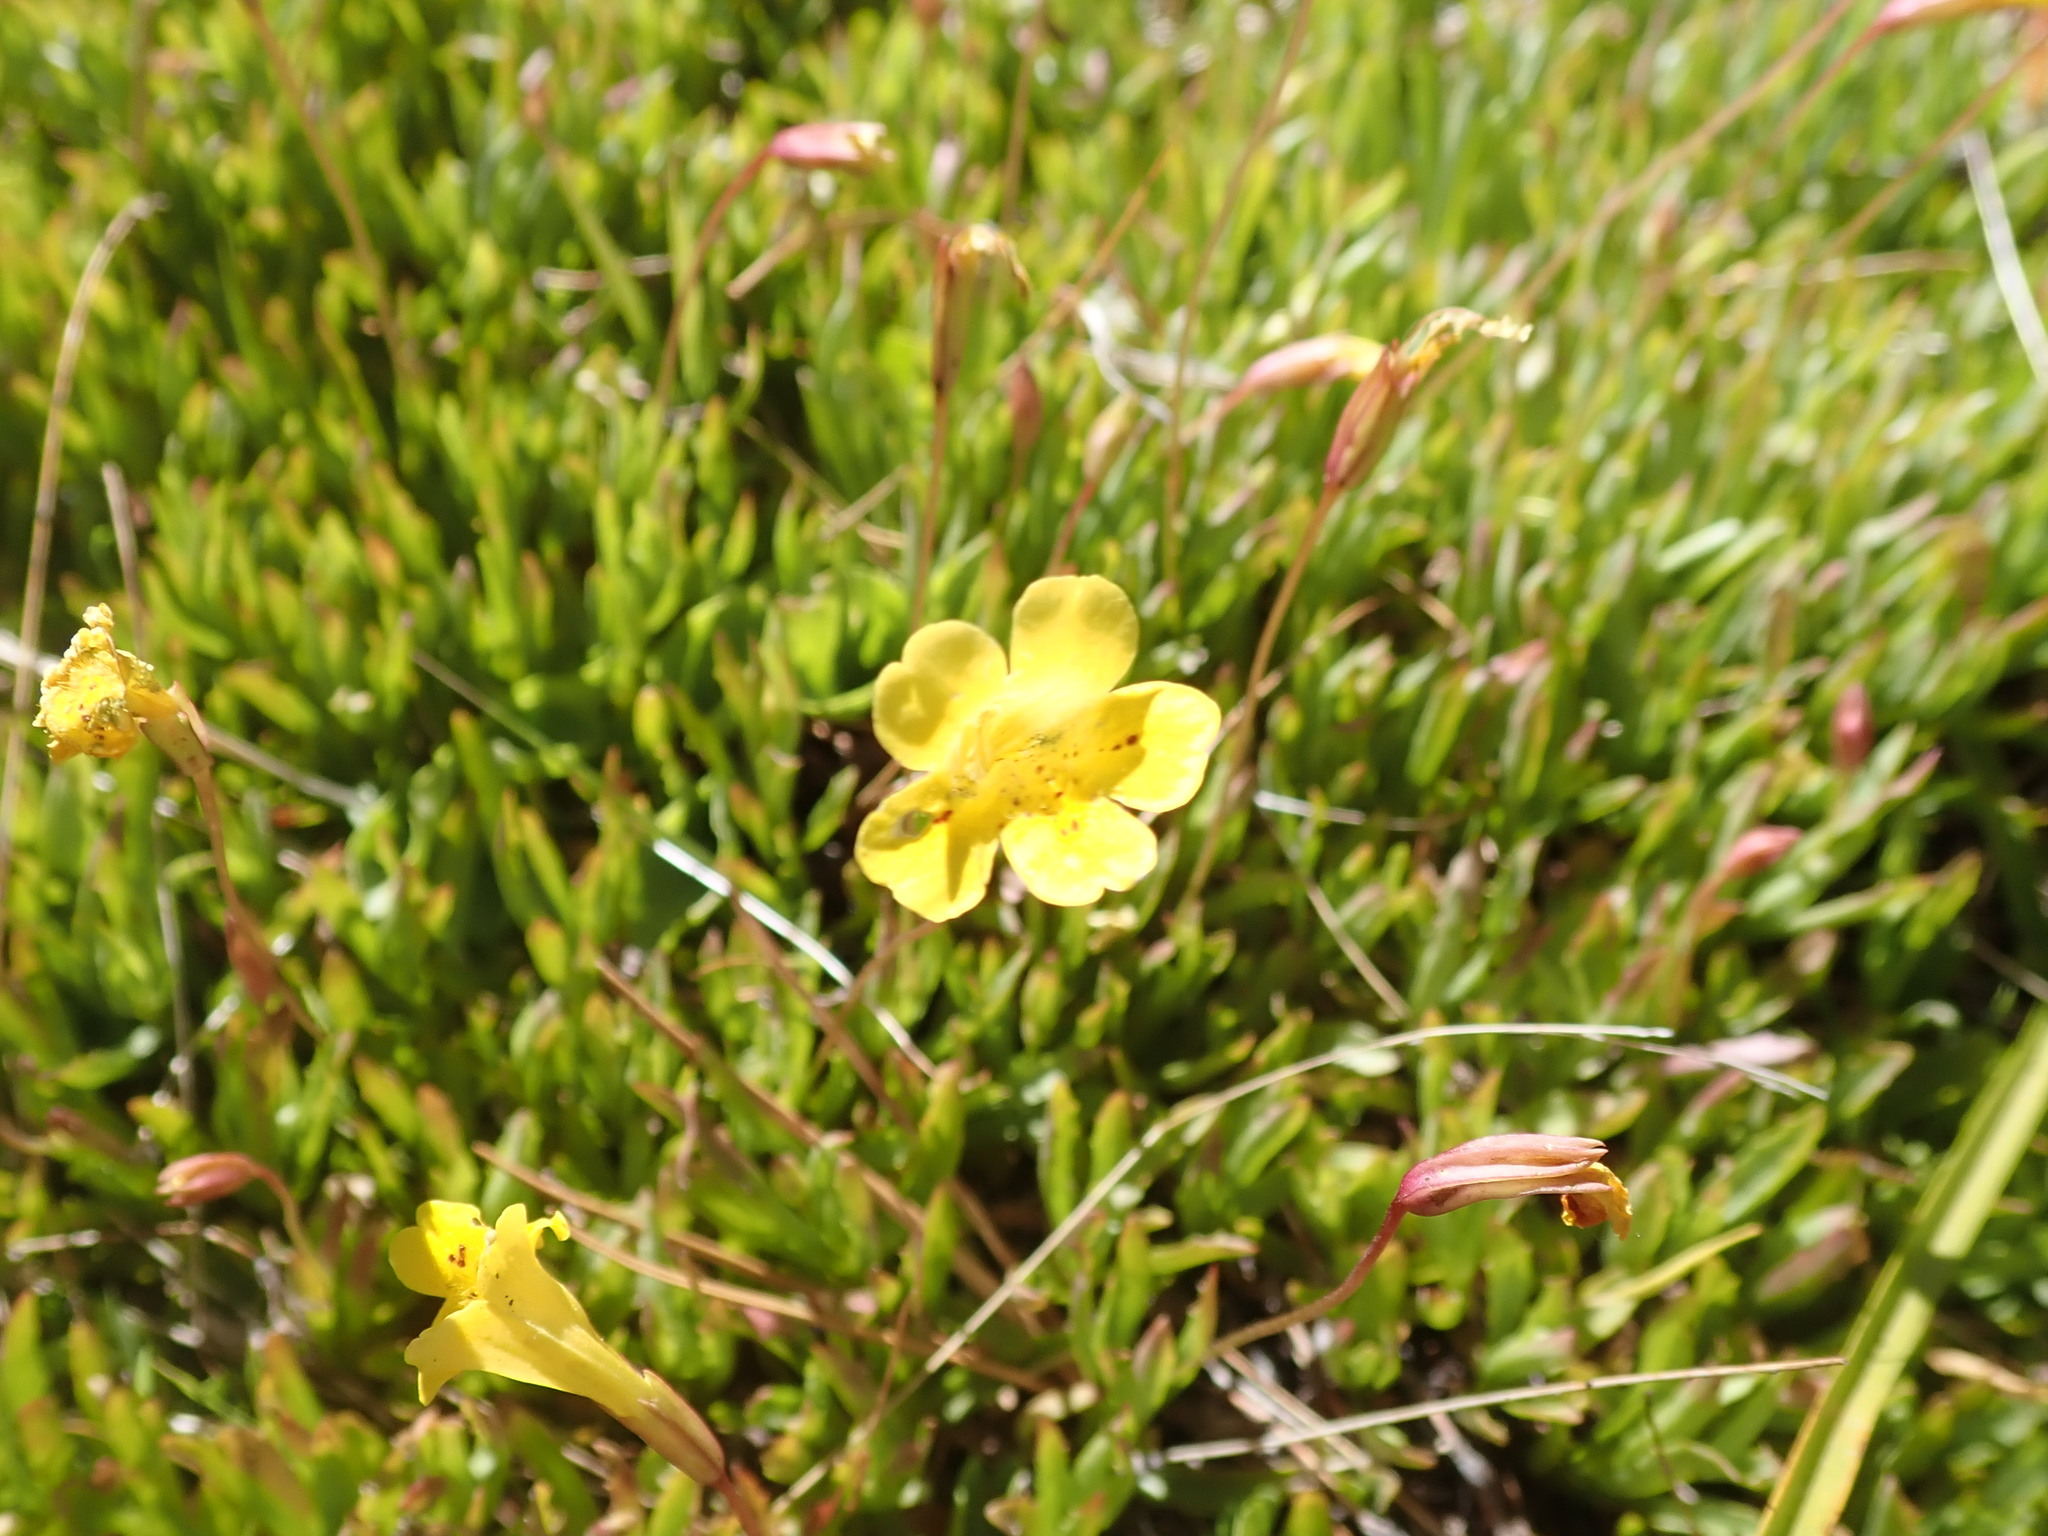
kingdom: Plantae
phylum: Tracheophyta
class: Magnoliopsida
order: Lamiales
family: Phrymaceae
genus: Erythranthe
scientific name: Erythranthe linearifolia
